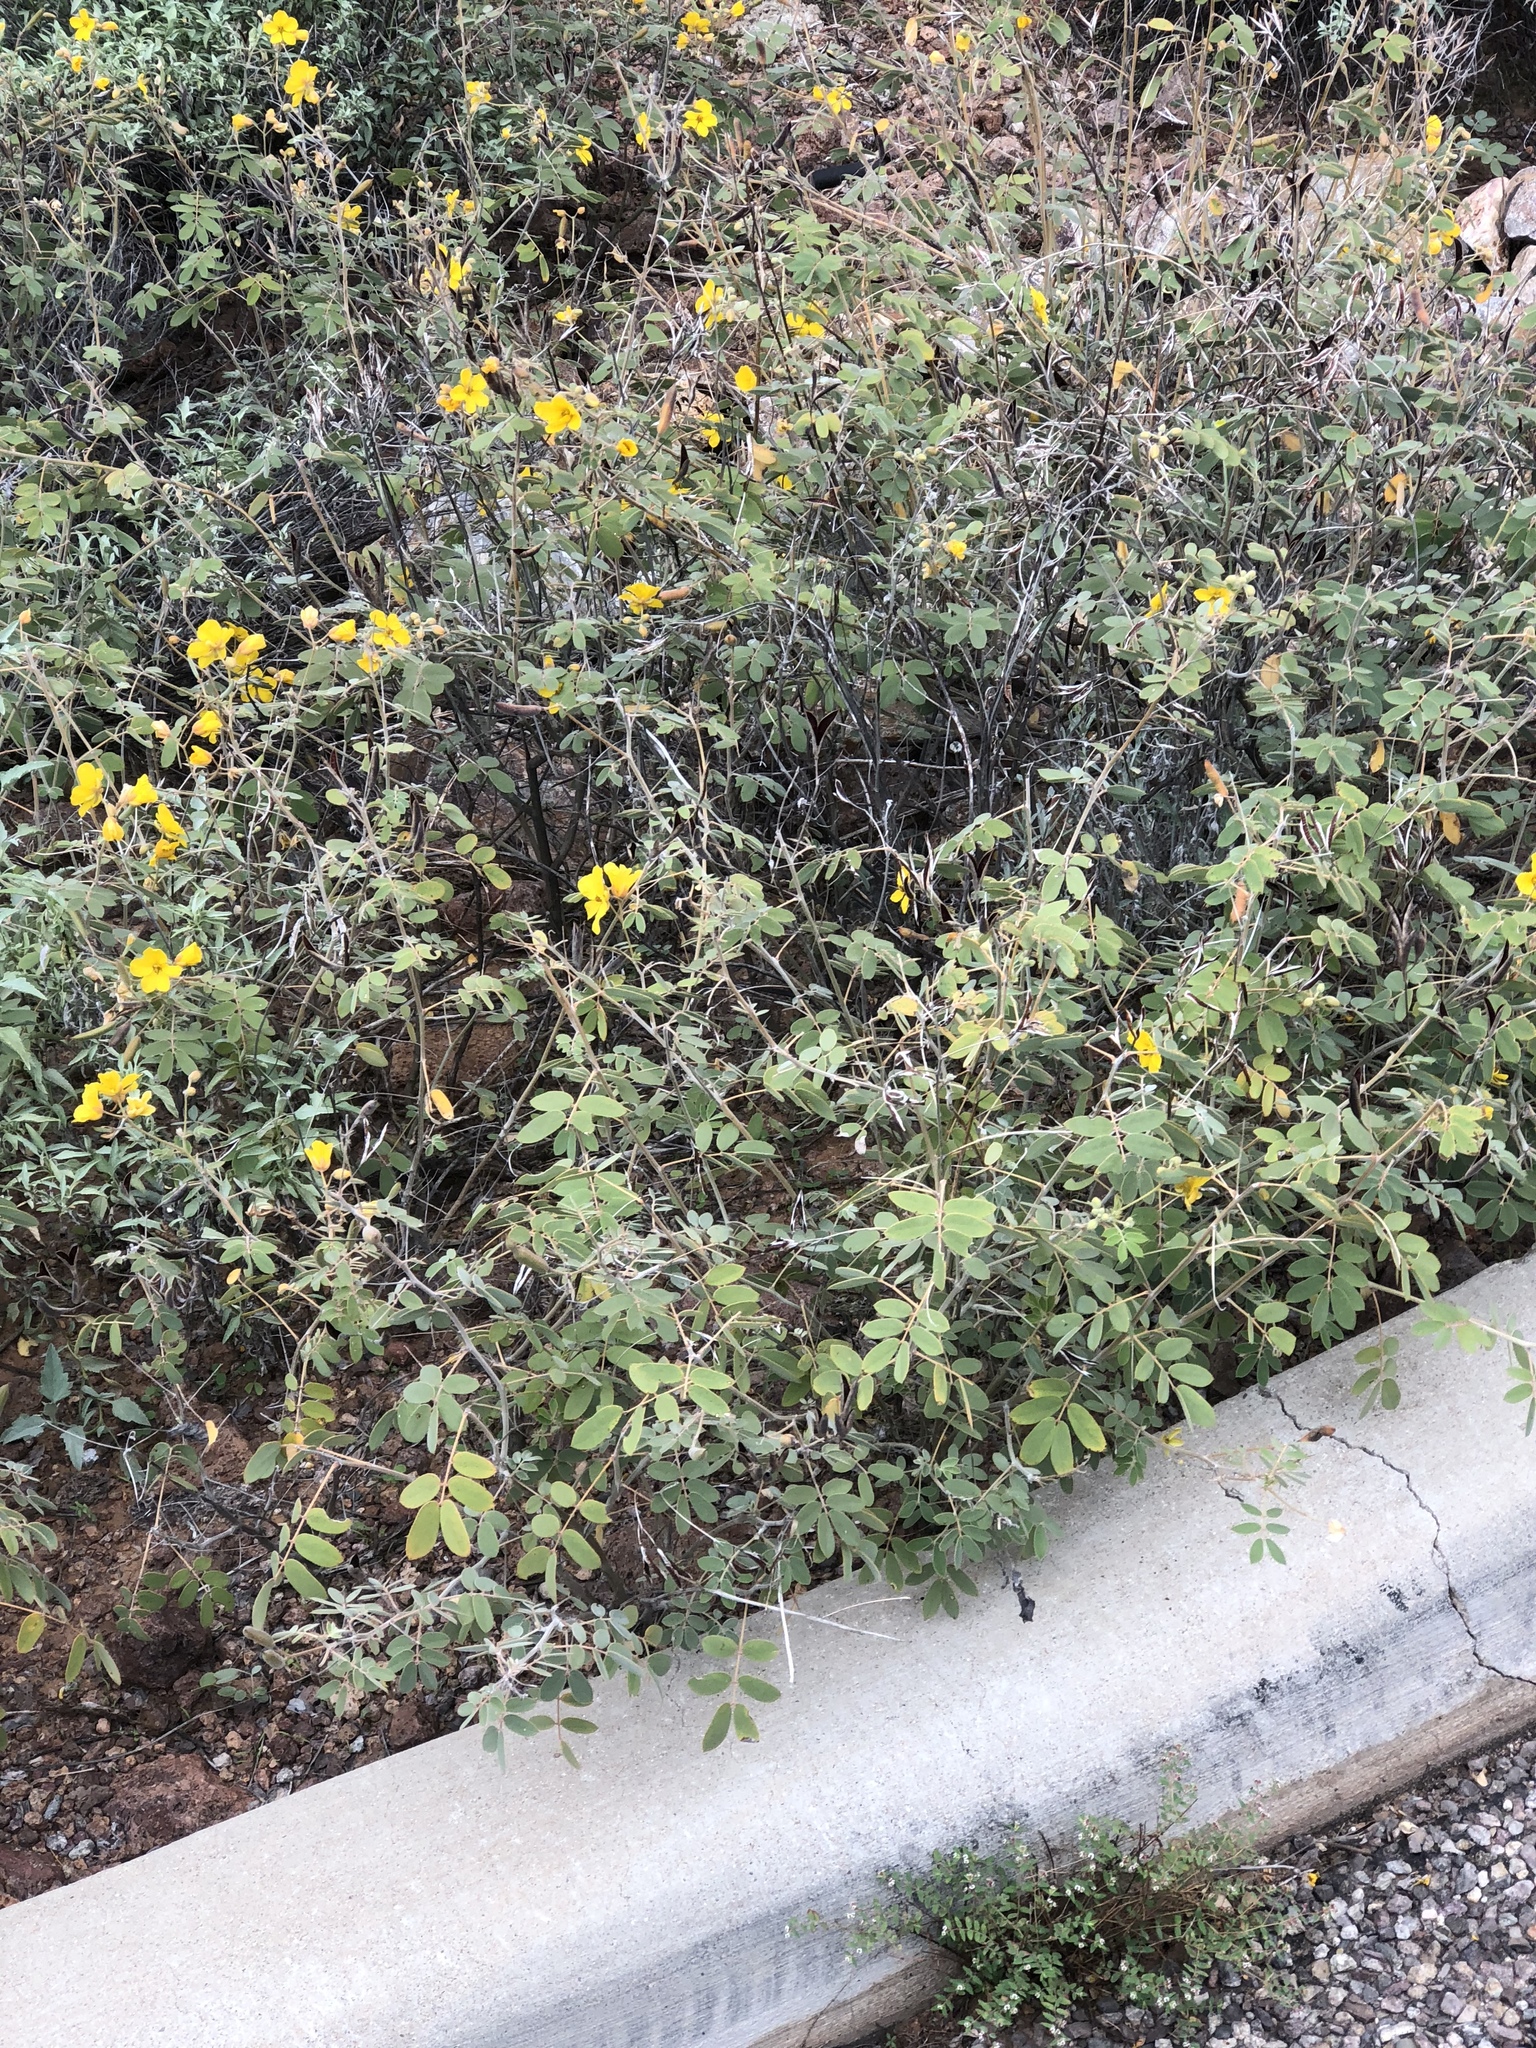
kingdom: Plantae
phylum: Tracheophyta
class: Magnoliopsida
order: Fabales
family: Fabaceae
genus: Senna
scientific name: Senna covesii
